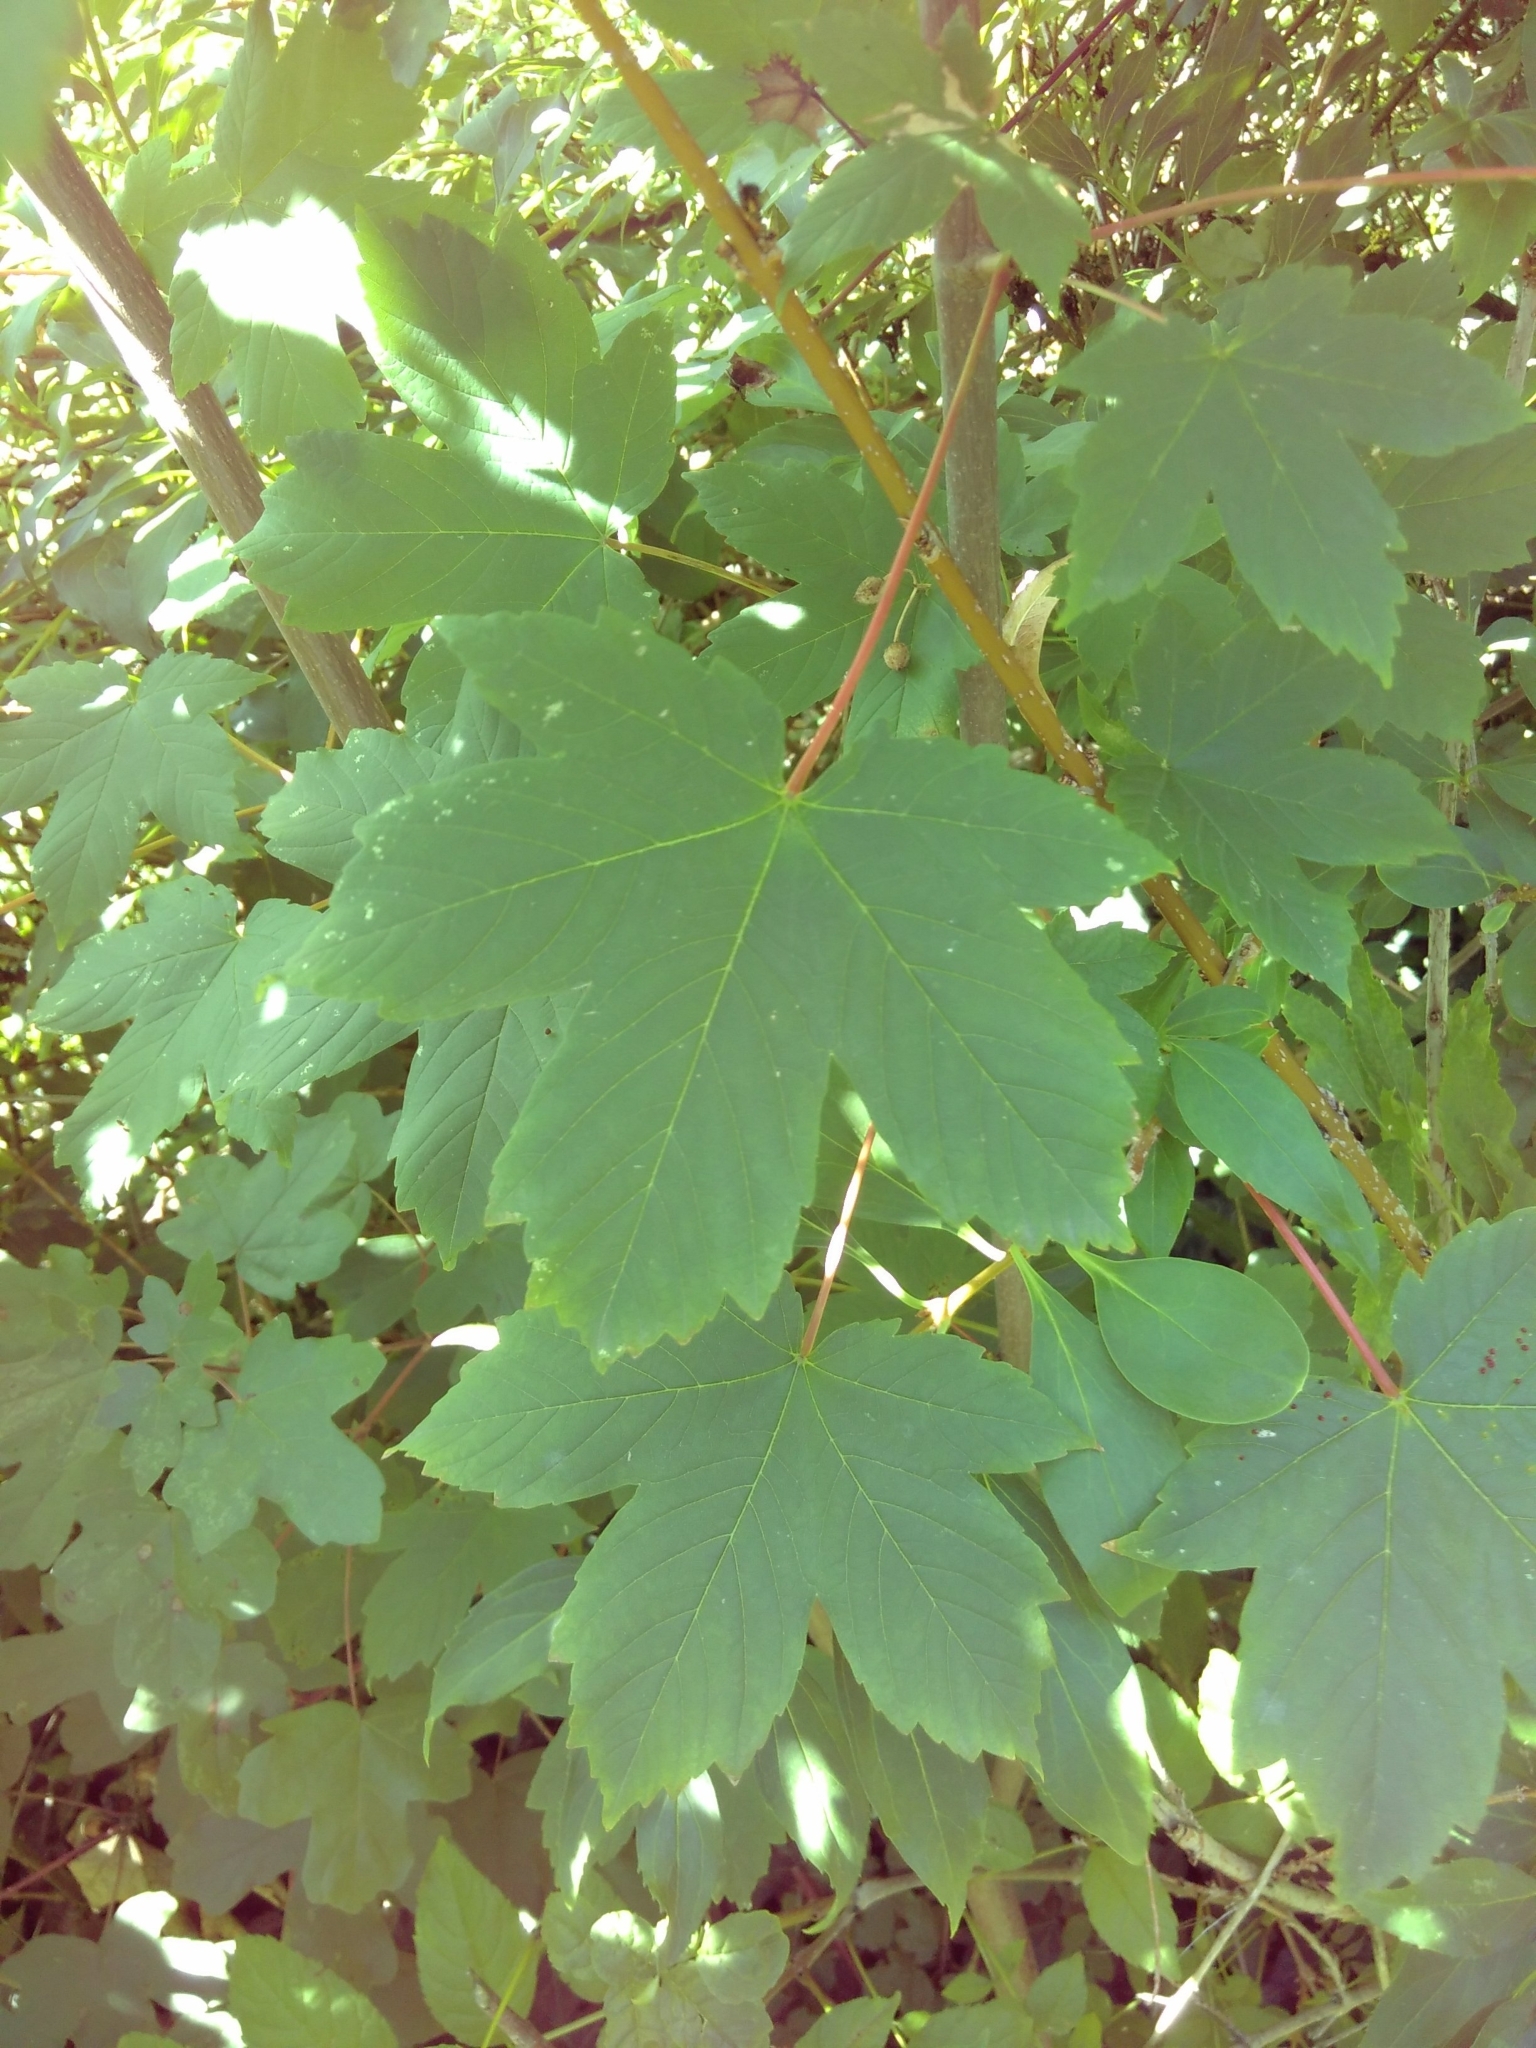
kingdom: Plantae
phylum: Tracheophyta
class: Magnoliopsida
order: Sapindales
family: Sapindaceae
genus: Acer
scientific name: Acer pseudoplatanus
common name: Sycamore
